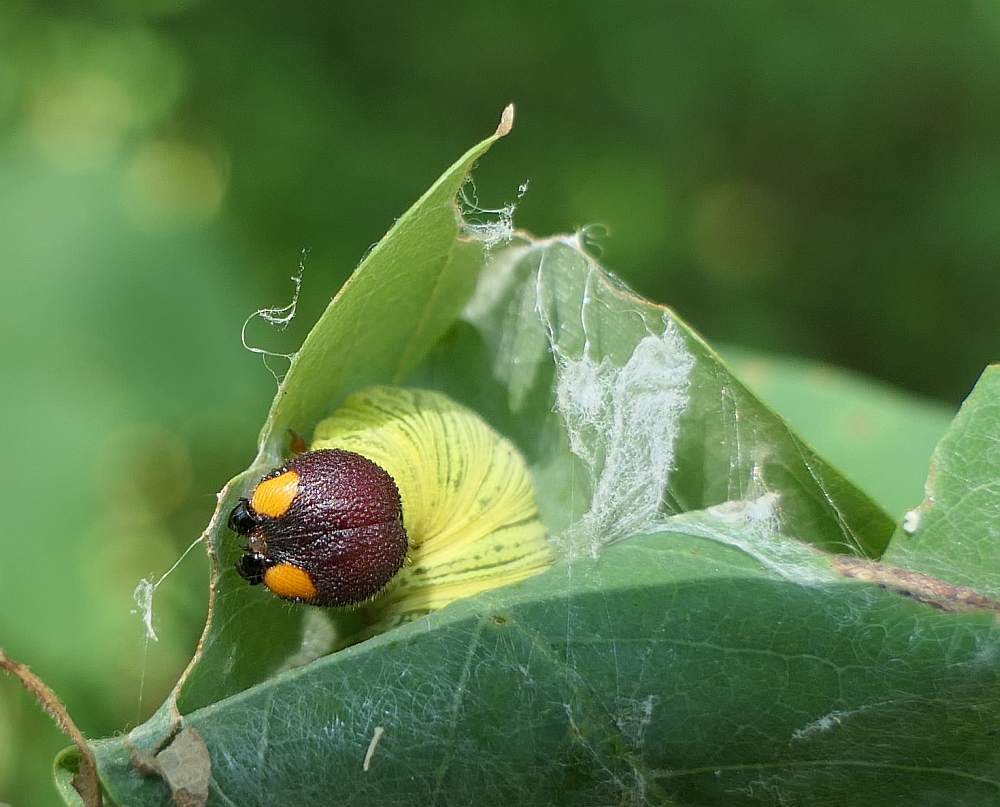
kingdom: Animalia
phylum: Arthropoda
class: Insecta
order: Lepidoptera
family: Hesperiidae
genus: Epargyreus
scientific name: Epargyreus clarus
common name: Silver-spotted skipper
